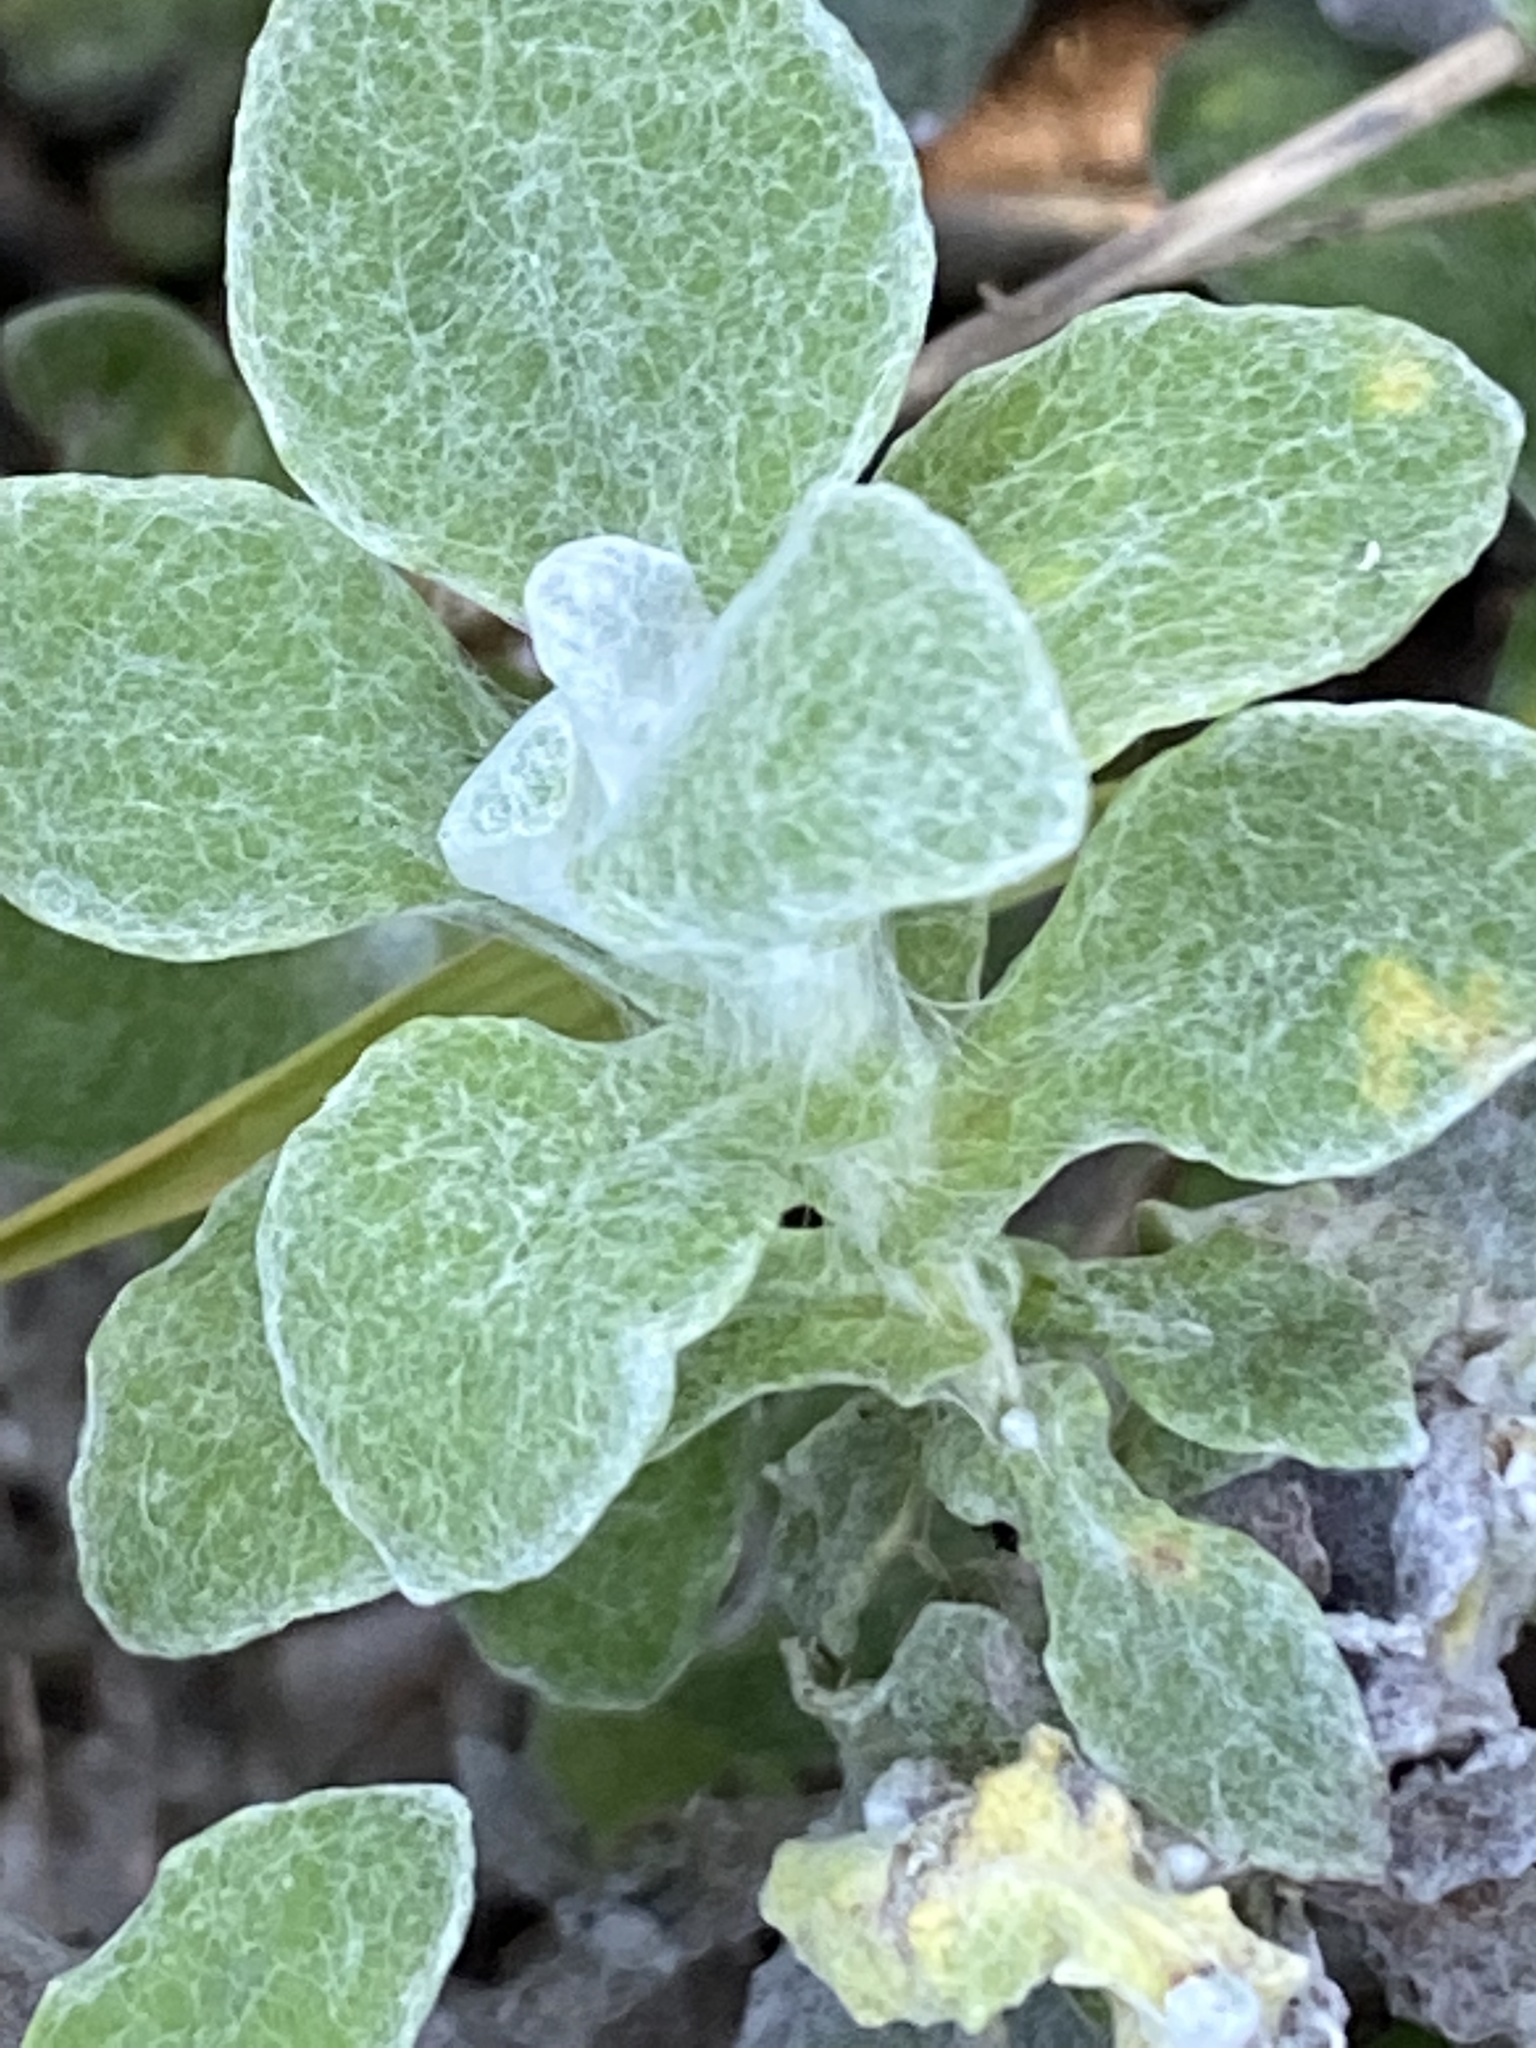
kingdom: Plantae
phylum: Tracheophyta
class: Magnoliopsida
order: Asterales
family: Asteraceae
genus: Helichrysum
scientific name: Helichrysum patulum
